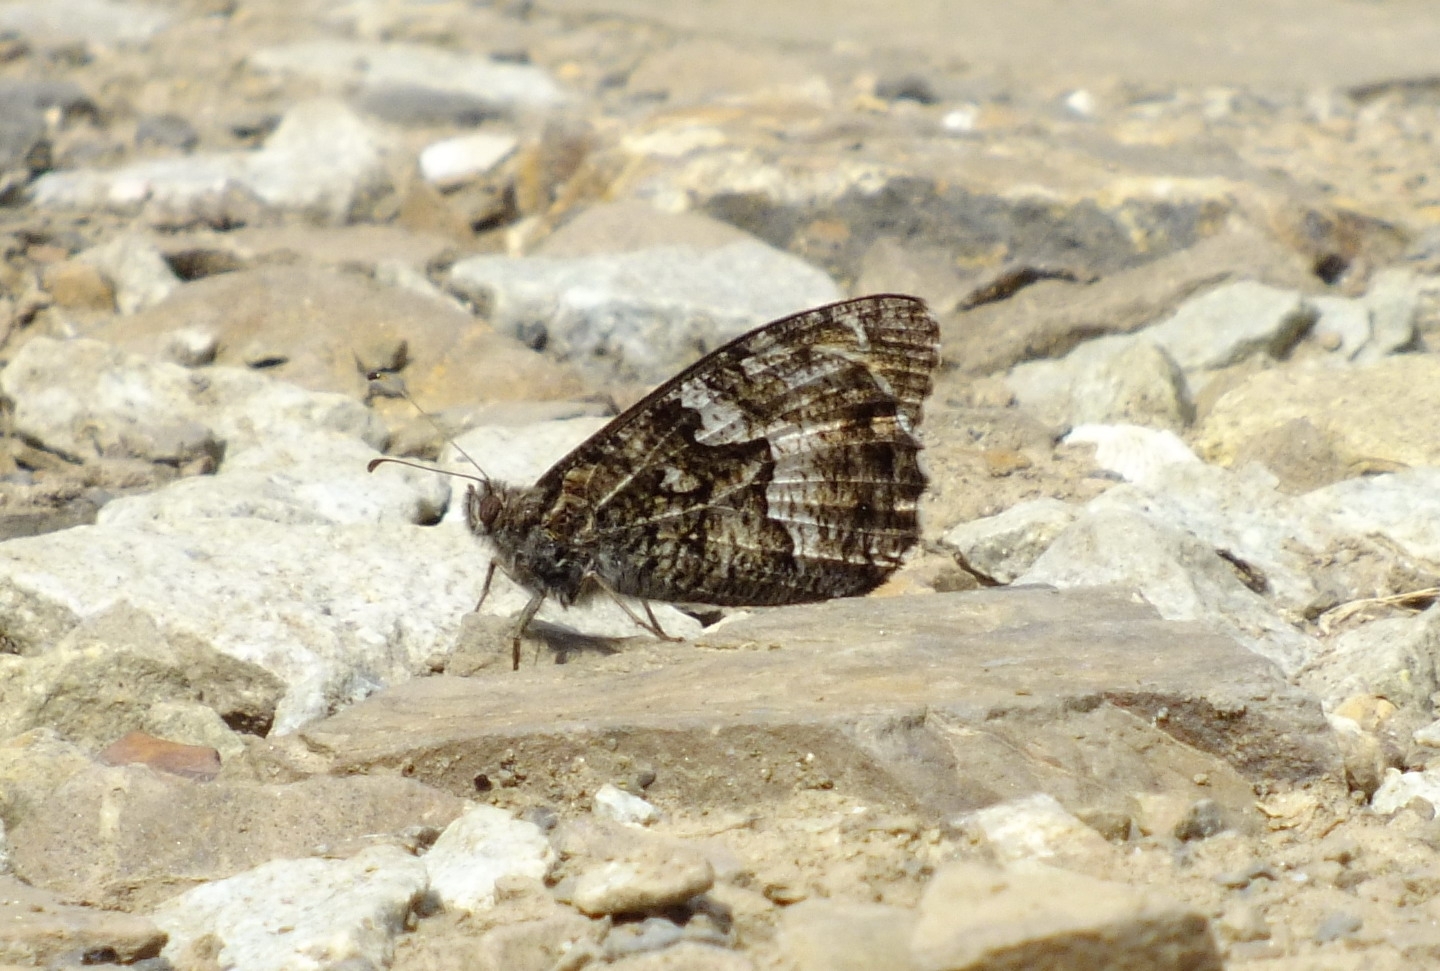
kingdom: Animalia
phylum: Arthropoda
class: Insecta
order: Lepidoptera
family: Nymphalidae
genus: Hipparchia
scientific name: Hipparchia pellucida
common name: Lesbos grayling
